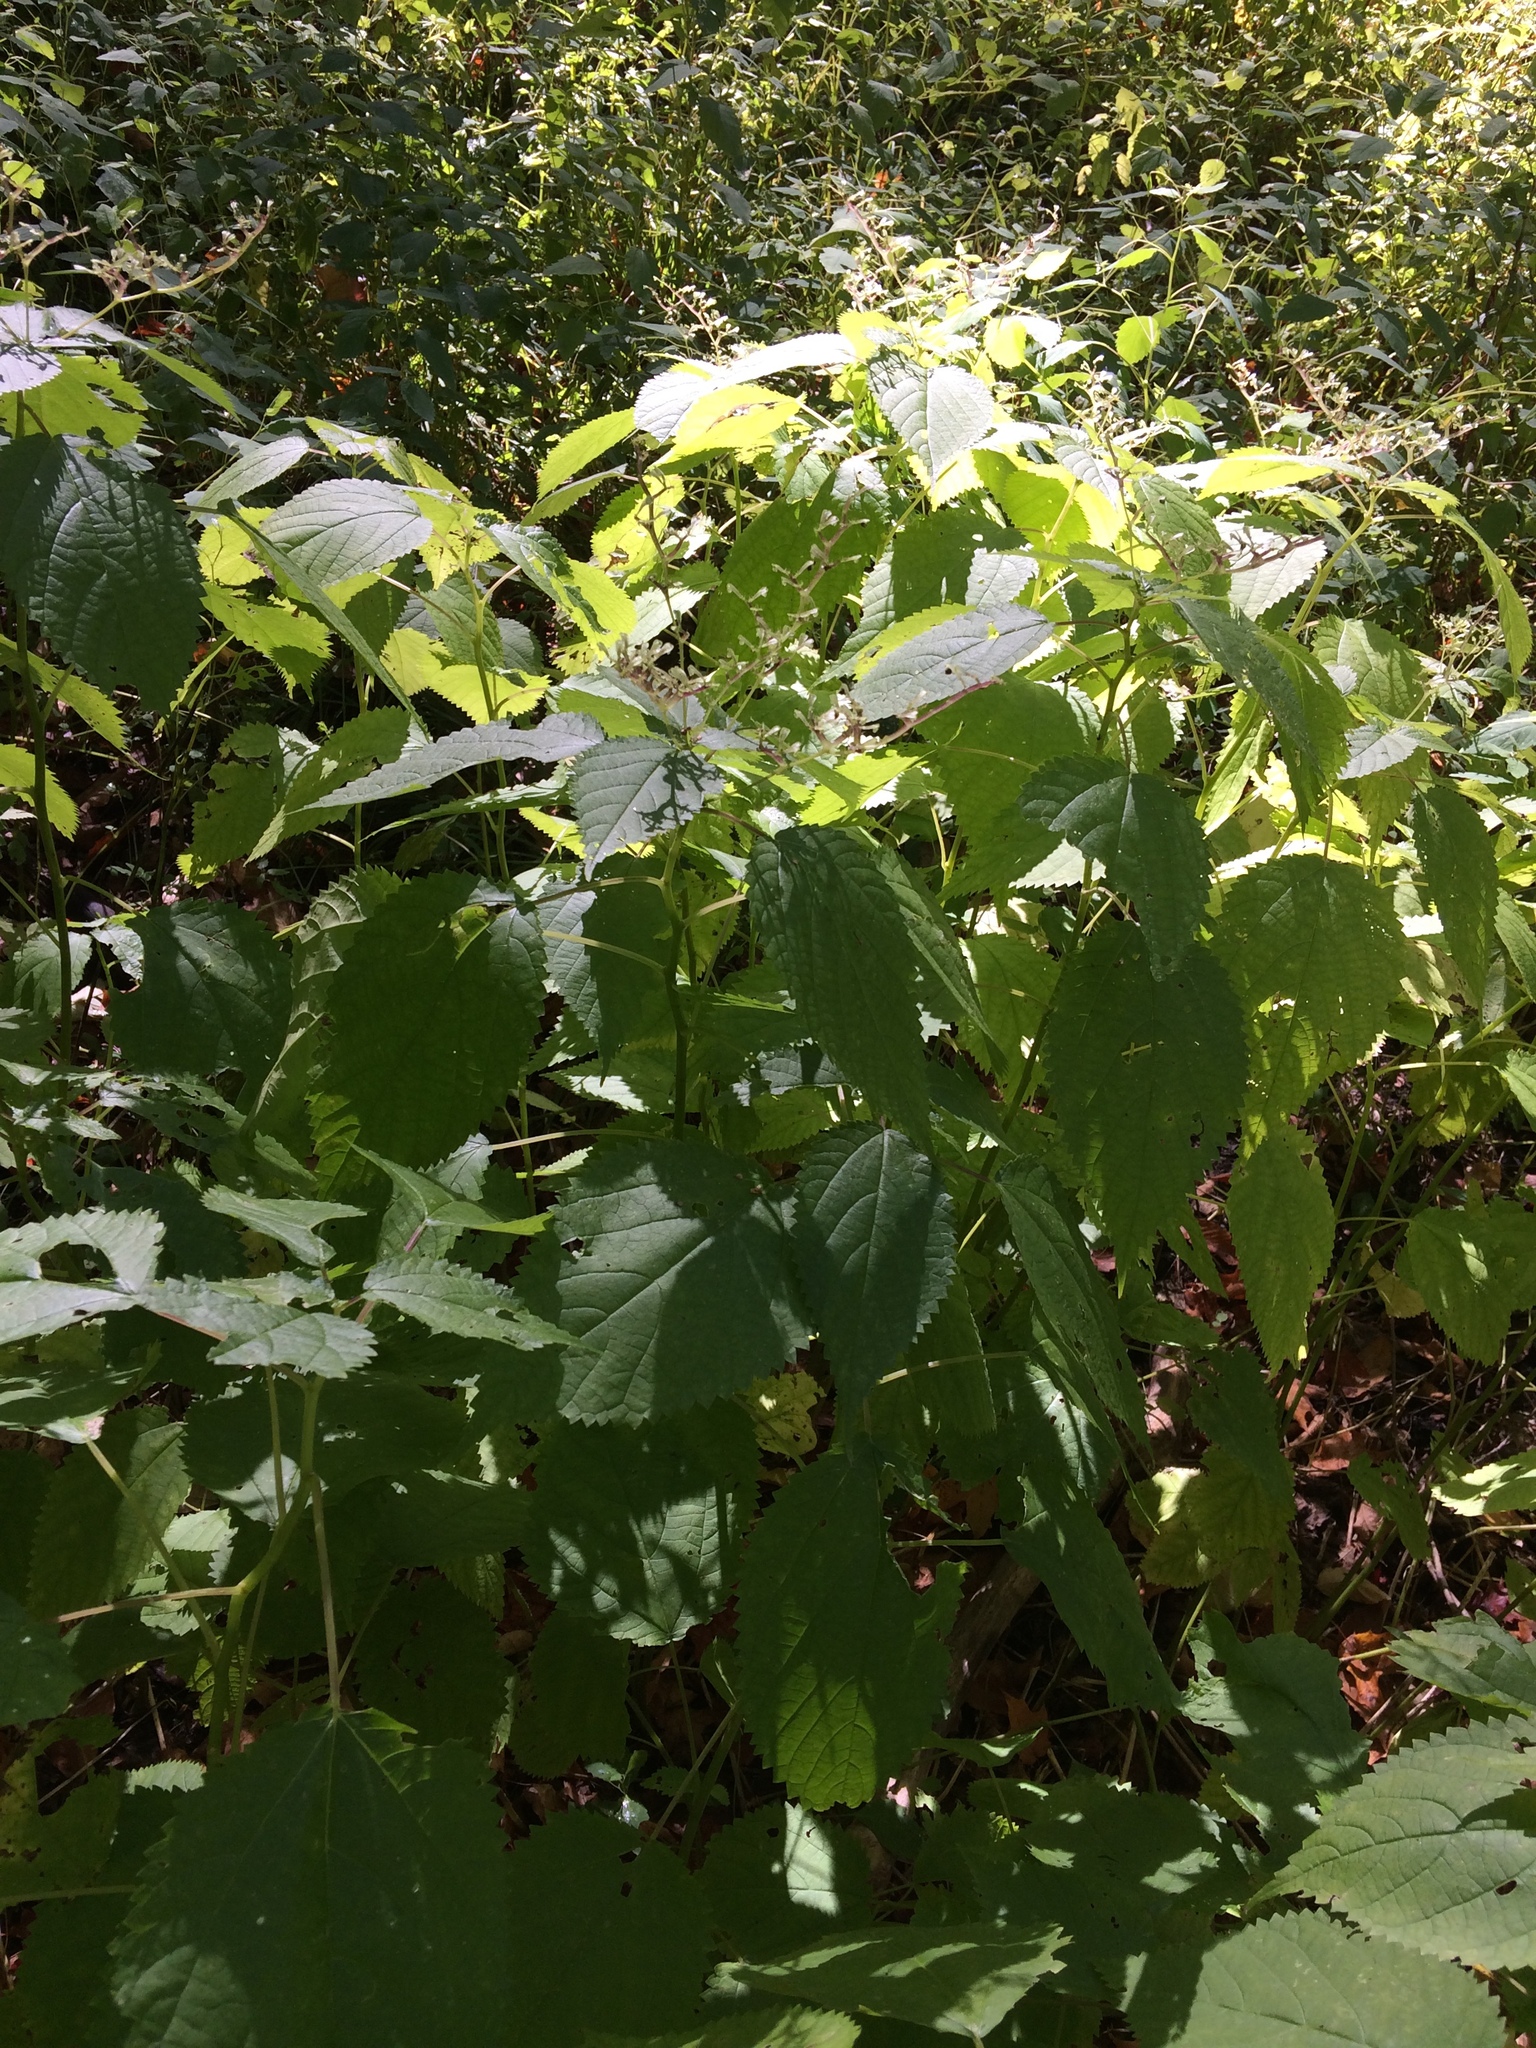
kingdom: Plantae
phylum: Tracheophyta
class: Magnoliopsida
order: Rosales
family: Urticaceae
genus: Laportea
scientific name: Laportea canadensis
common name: Canada nettle
